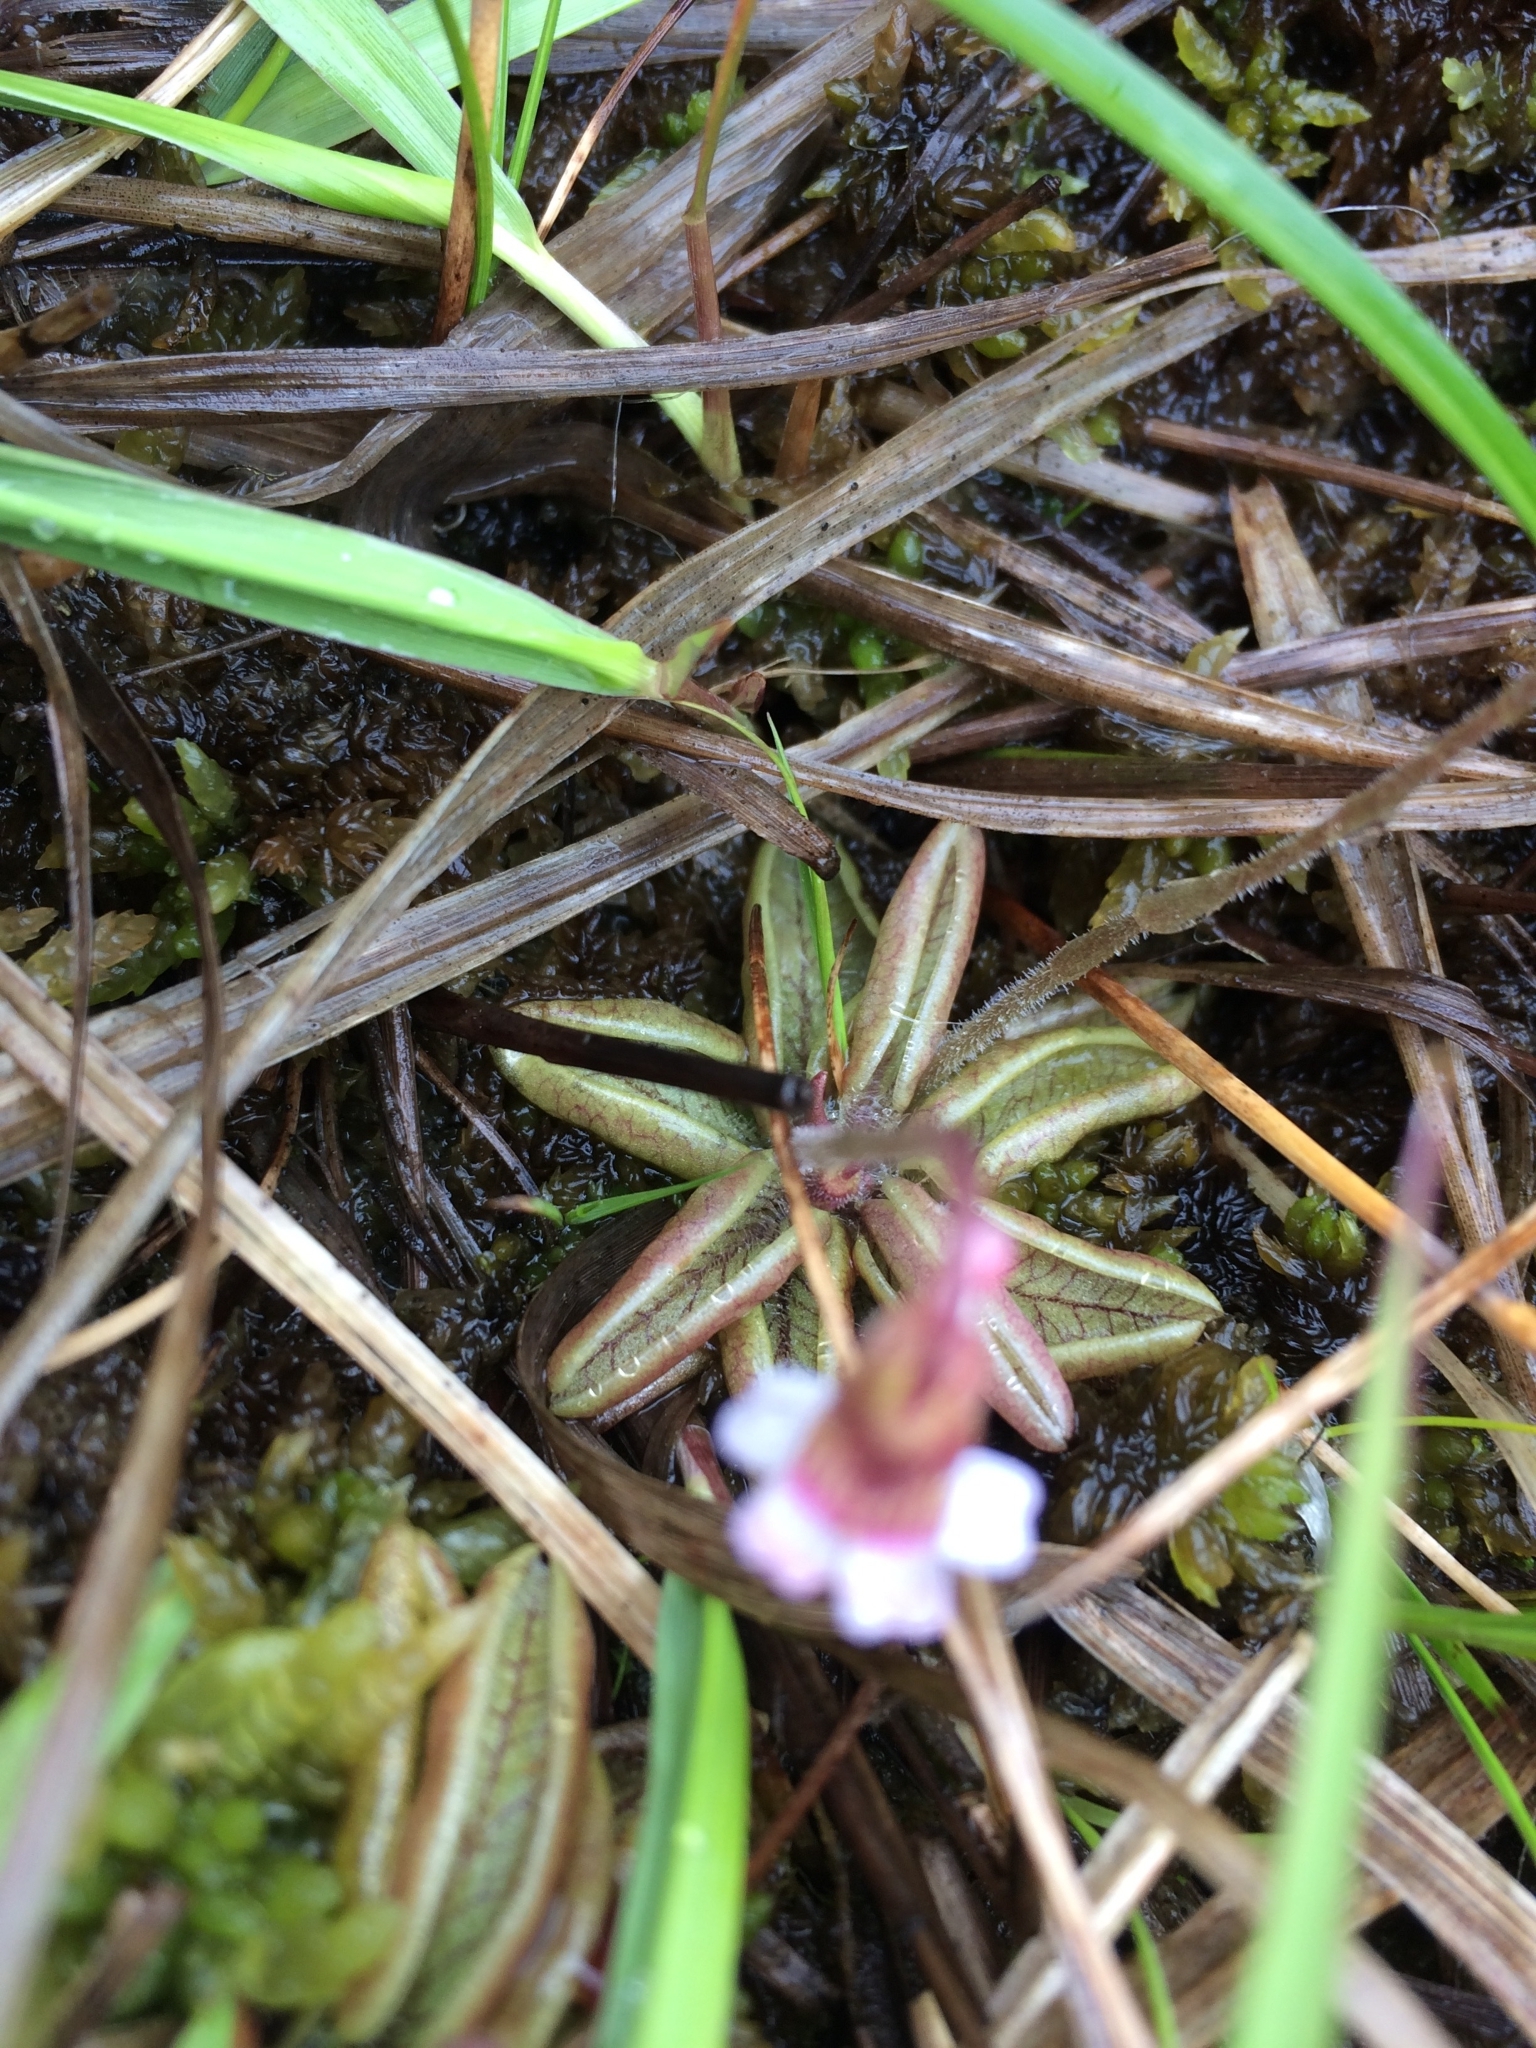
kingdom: Plantae
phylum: Tracheophyta
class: Magnoliopsida
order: Lamiales
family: Lentibulariaceae
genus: Pinguicula
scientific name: Pinguicula lusitanica
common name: Pale butterwort
